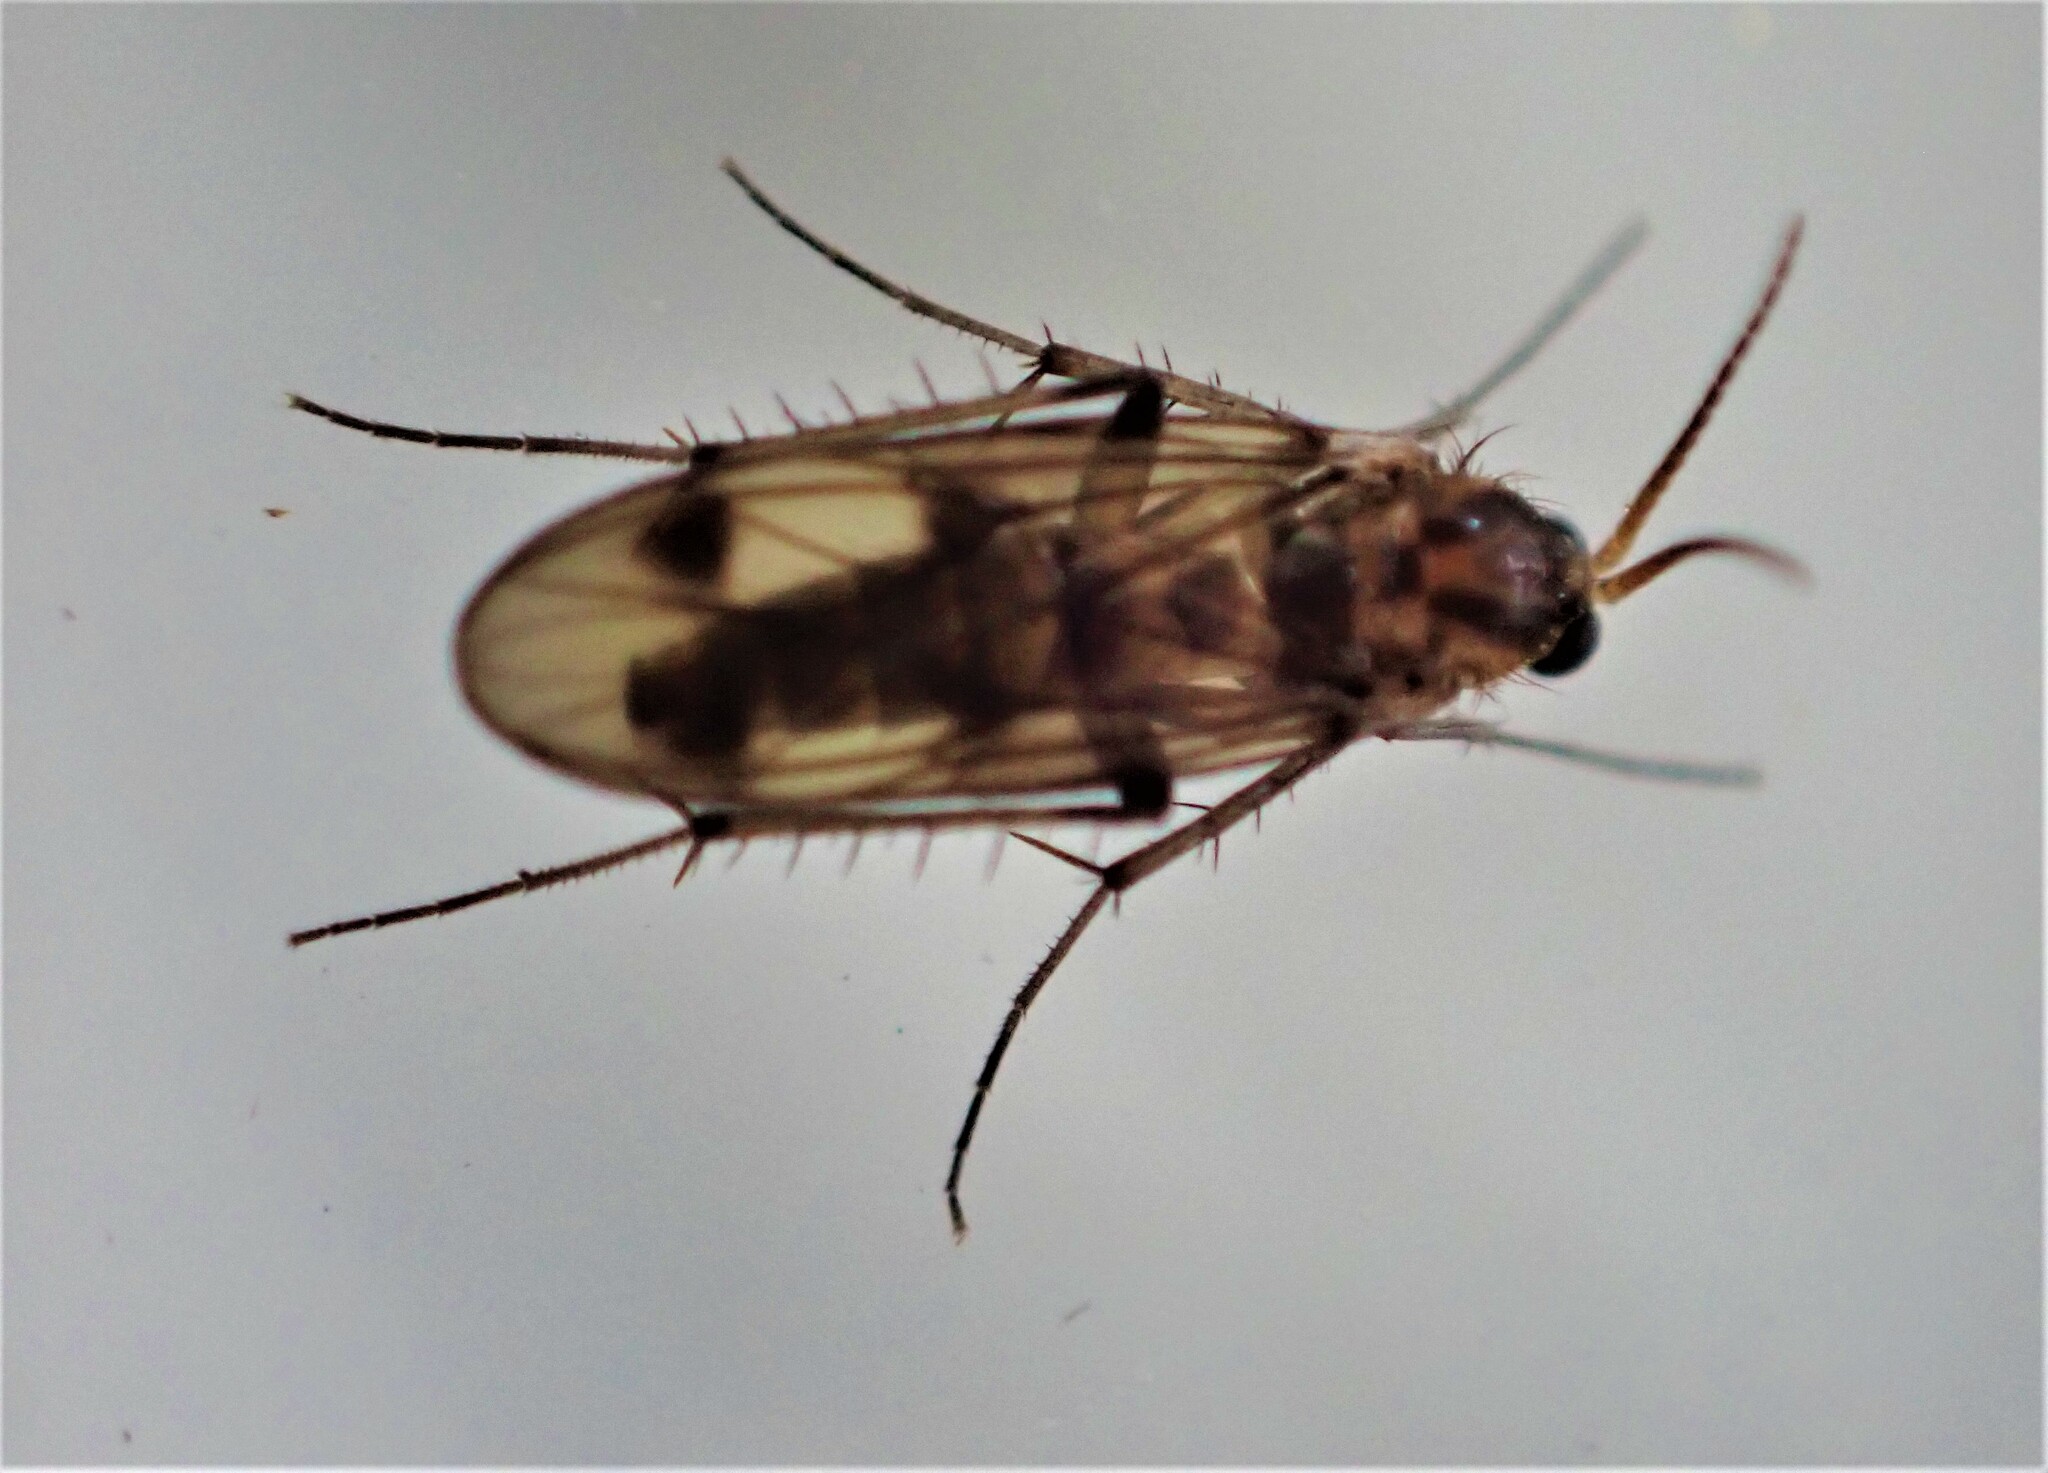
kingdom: Animalia
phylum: Arthropoda
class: Insecta
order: Diptera
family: Mycetophilidae
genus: Anomalomyia
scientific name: Anomalomyia guttata
